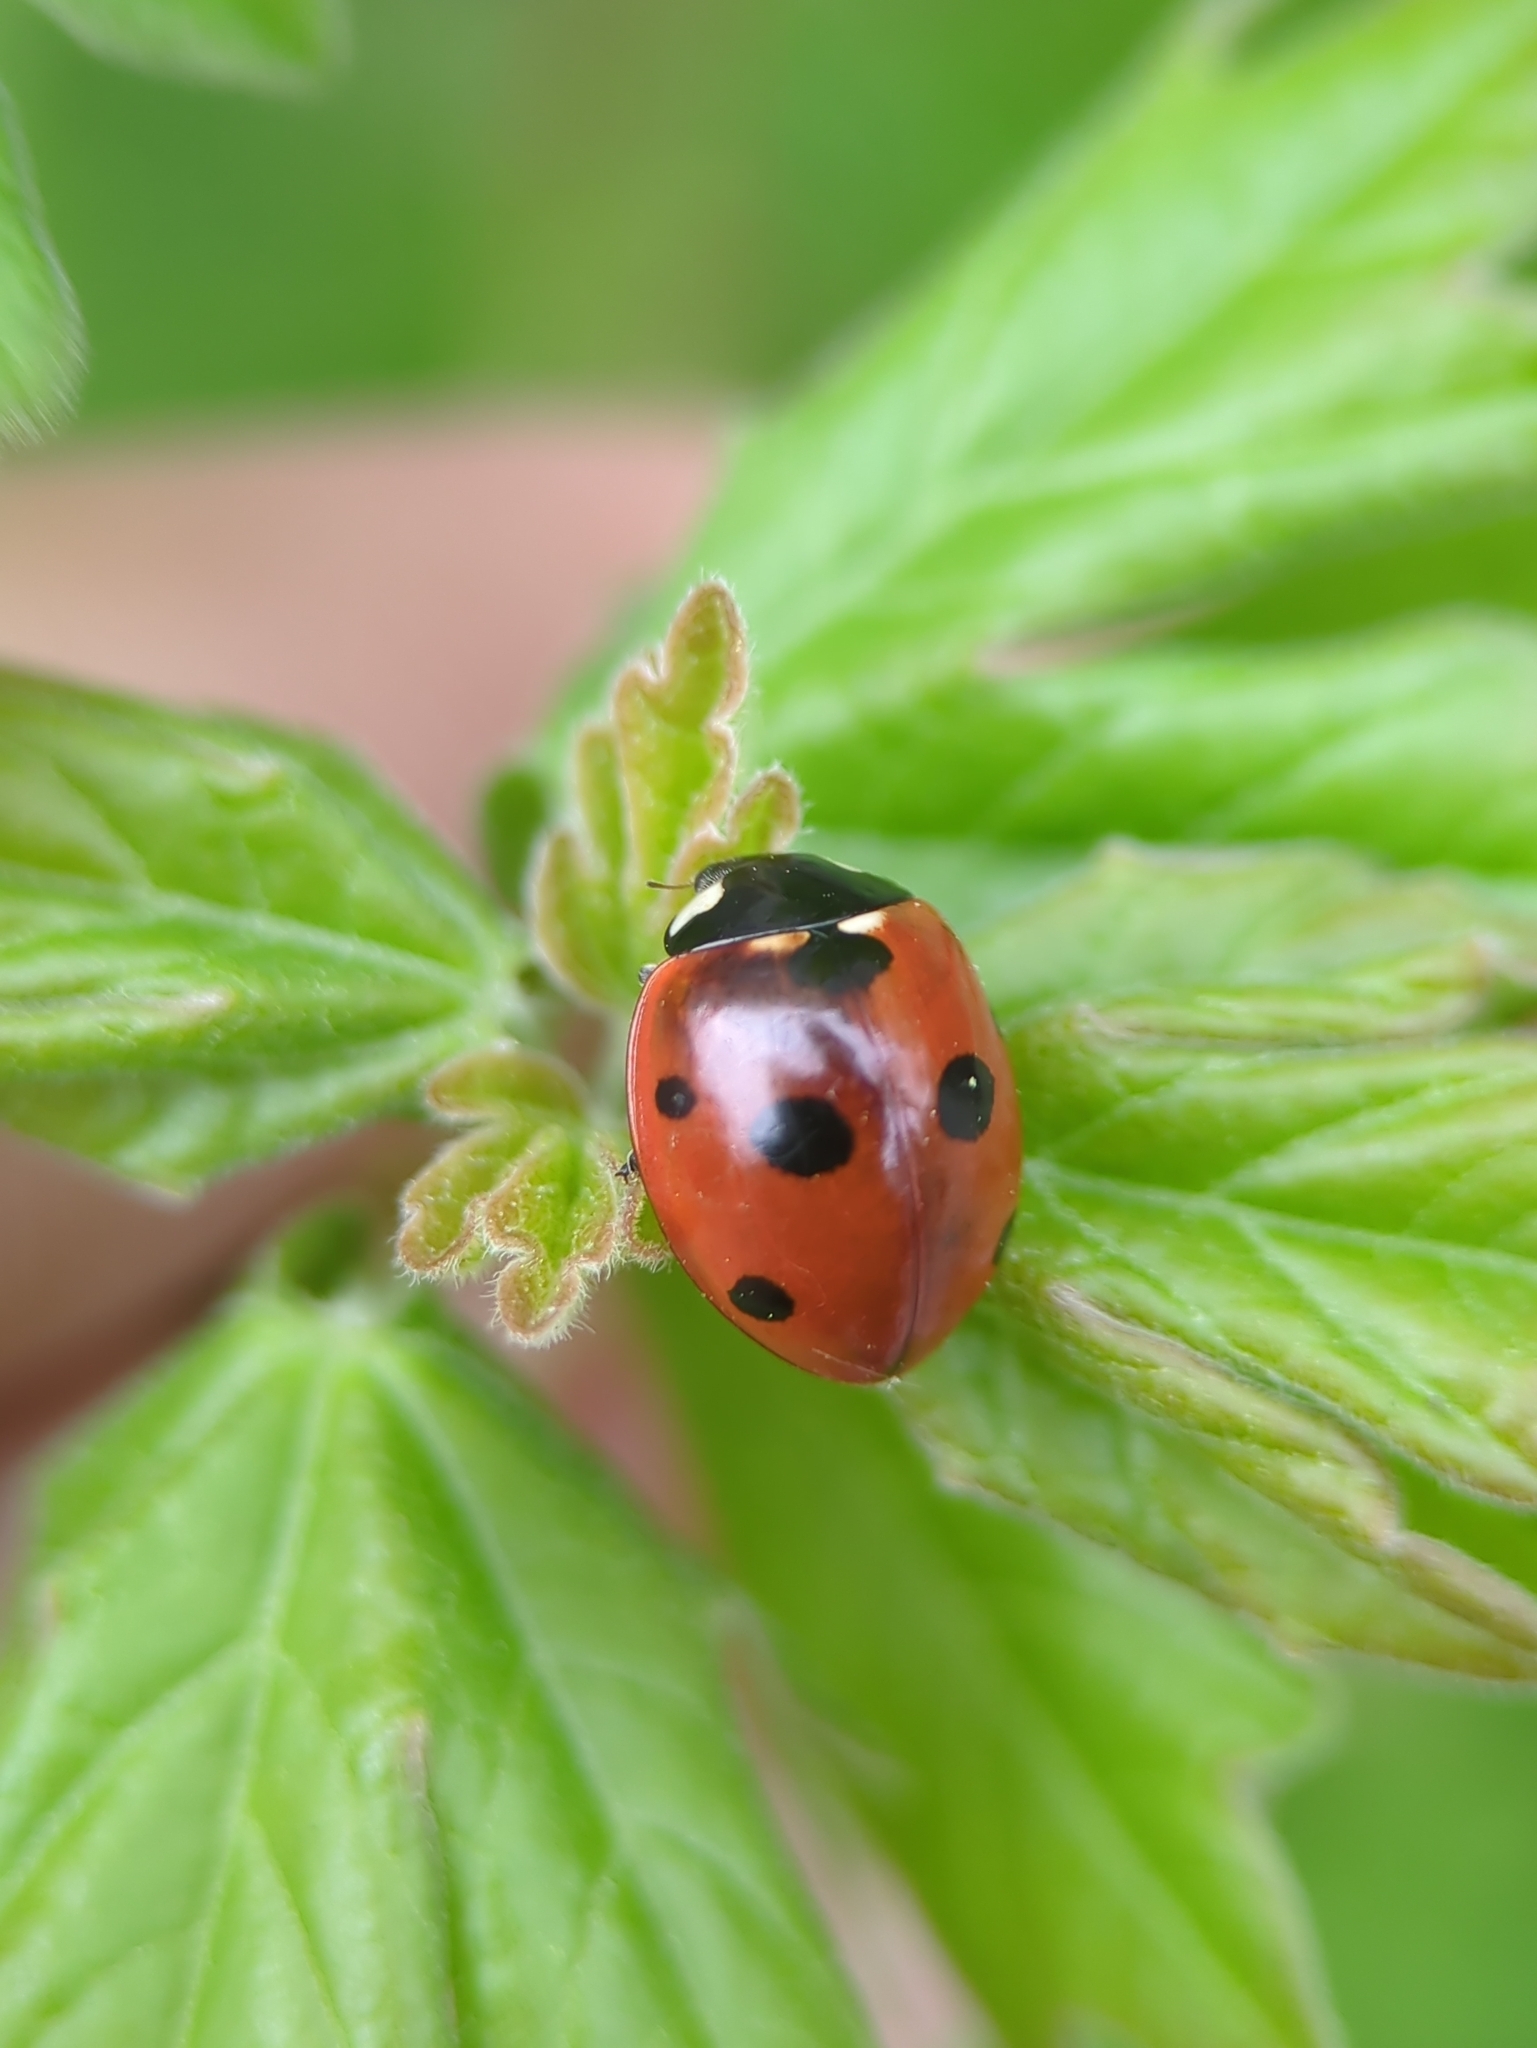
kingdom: Animalia
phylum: Arthropoda
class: Insecta
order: Coleoptera
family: Coccinellidae
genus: Coccinella
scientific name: Coccinella septempunctata
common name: Sevenspotted lady beetle
